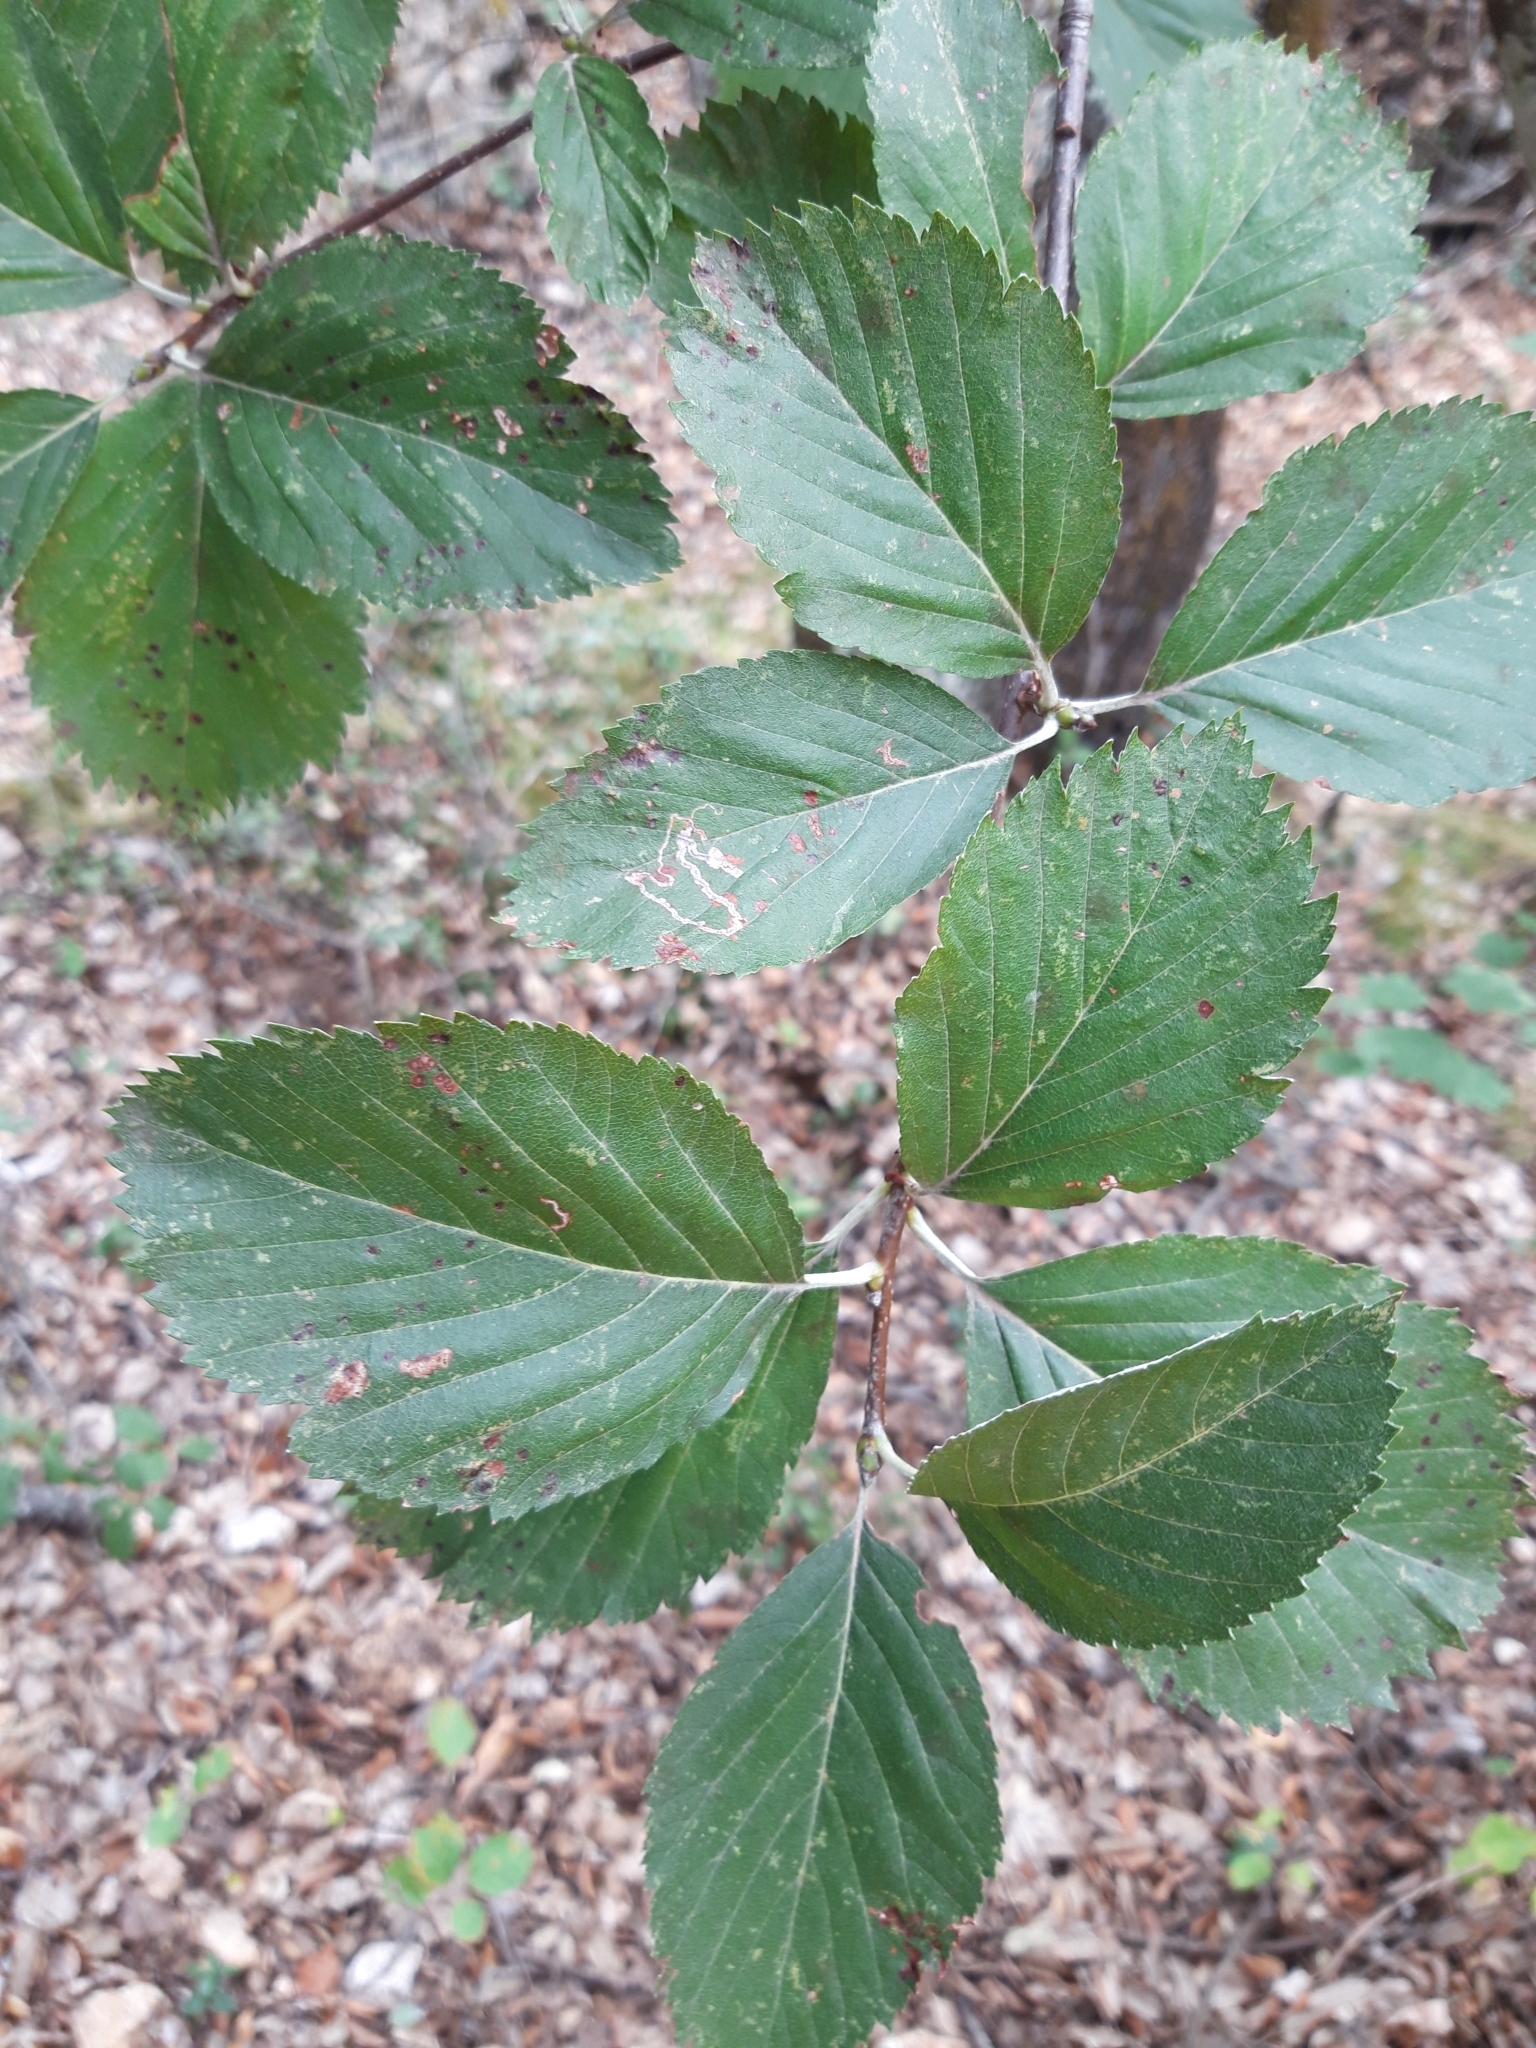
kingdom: Plantae
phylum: Tracheophyta
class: Magnoliopsida
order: Rosales
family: Rosaceae
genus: Aria
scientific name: Aria edulis
